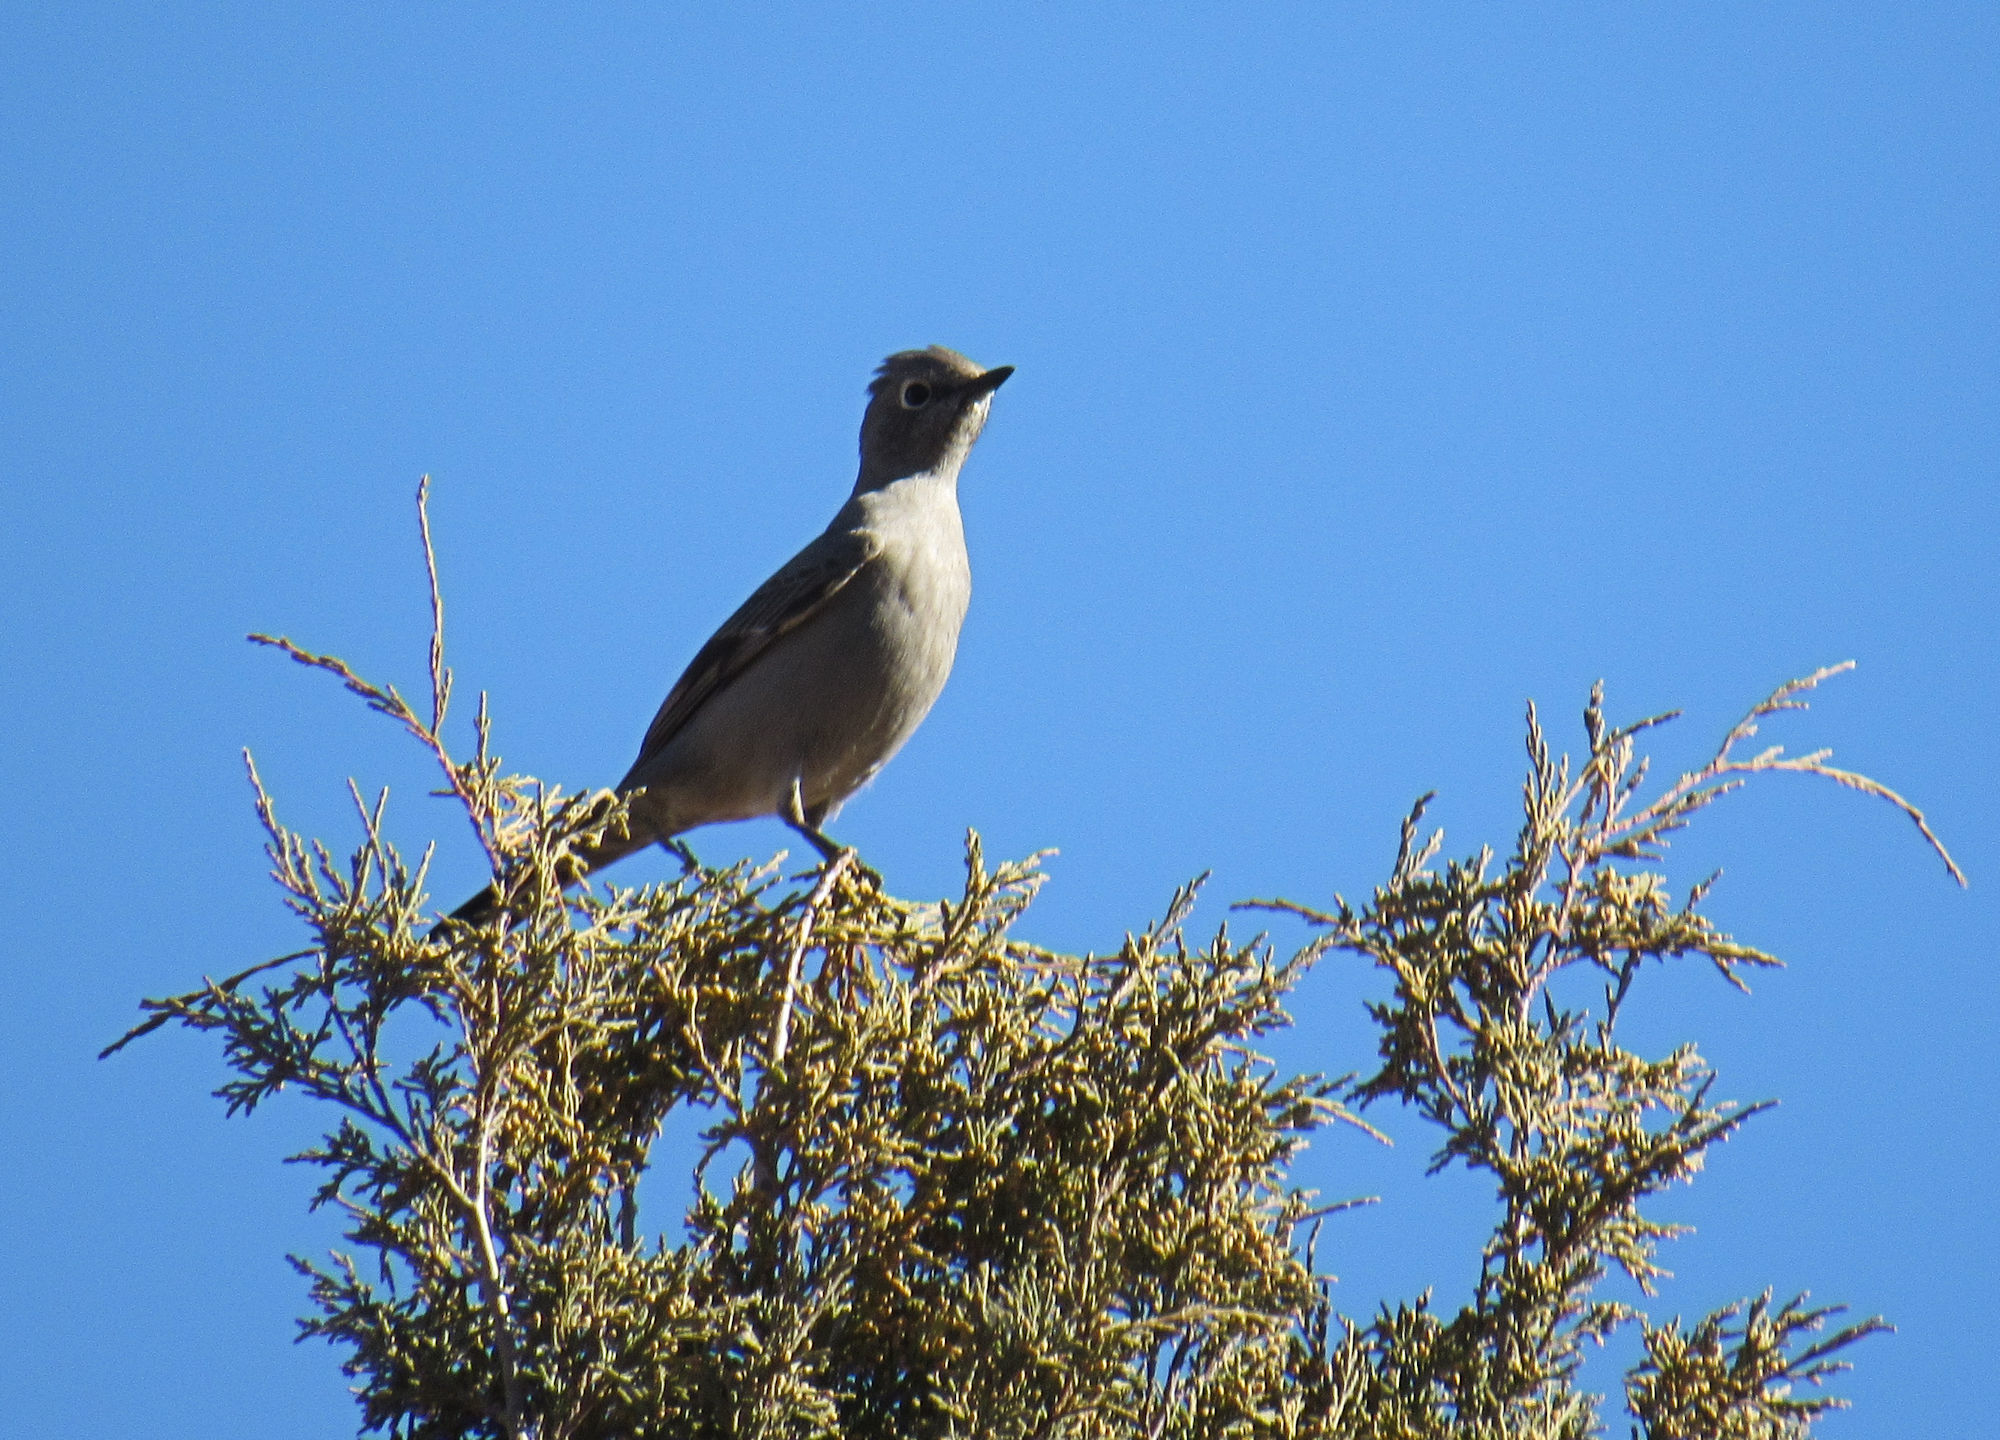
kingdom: Animalia
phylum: Chordata
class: Aves
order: Passeriformes
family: Turdidae
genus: Myadestes
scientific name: Myadestes townsendi
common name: Townsend's solitaire
